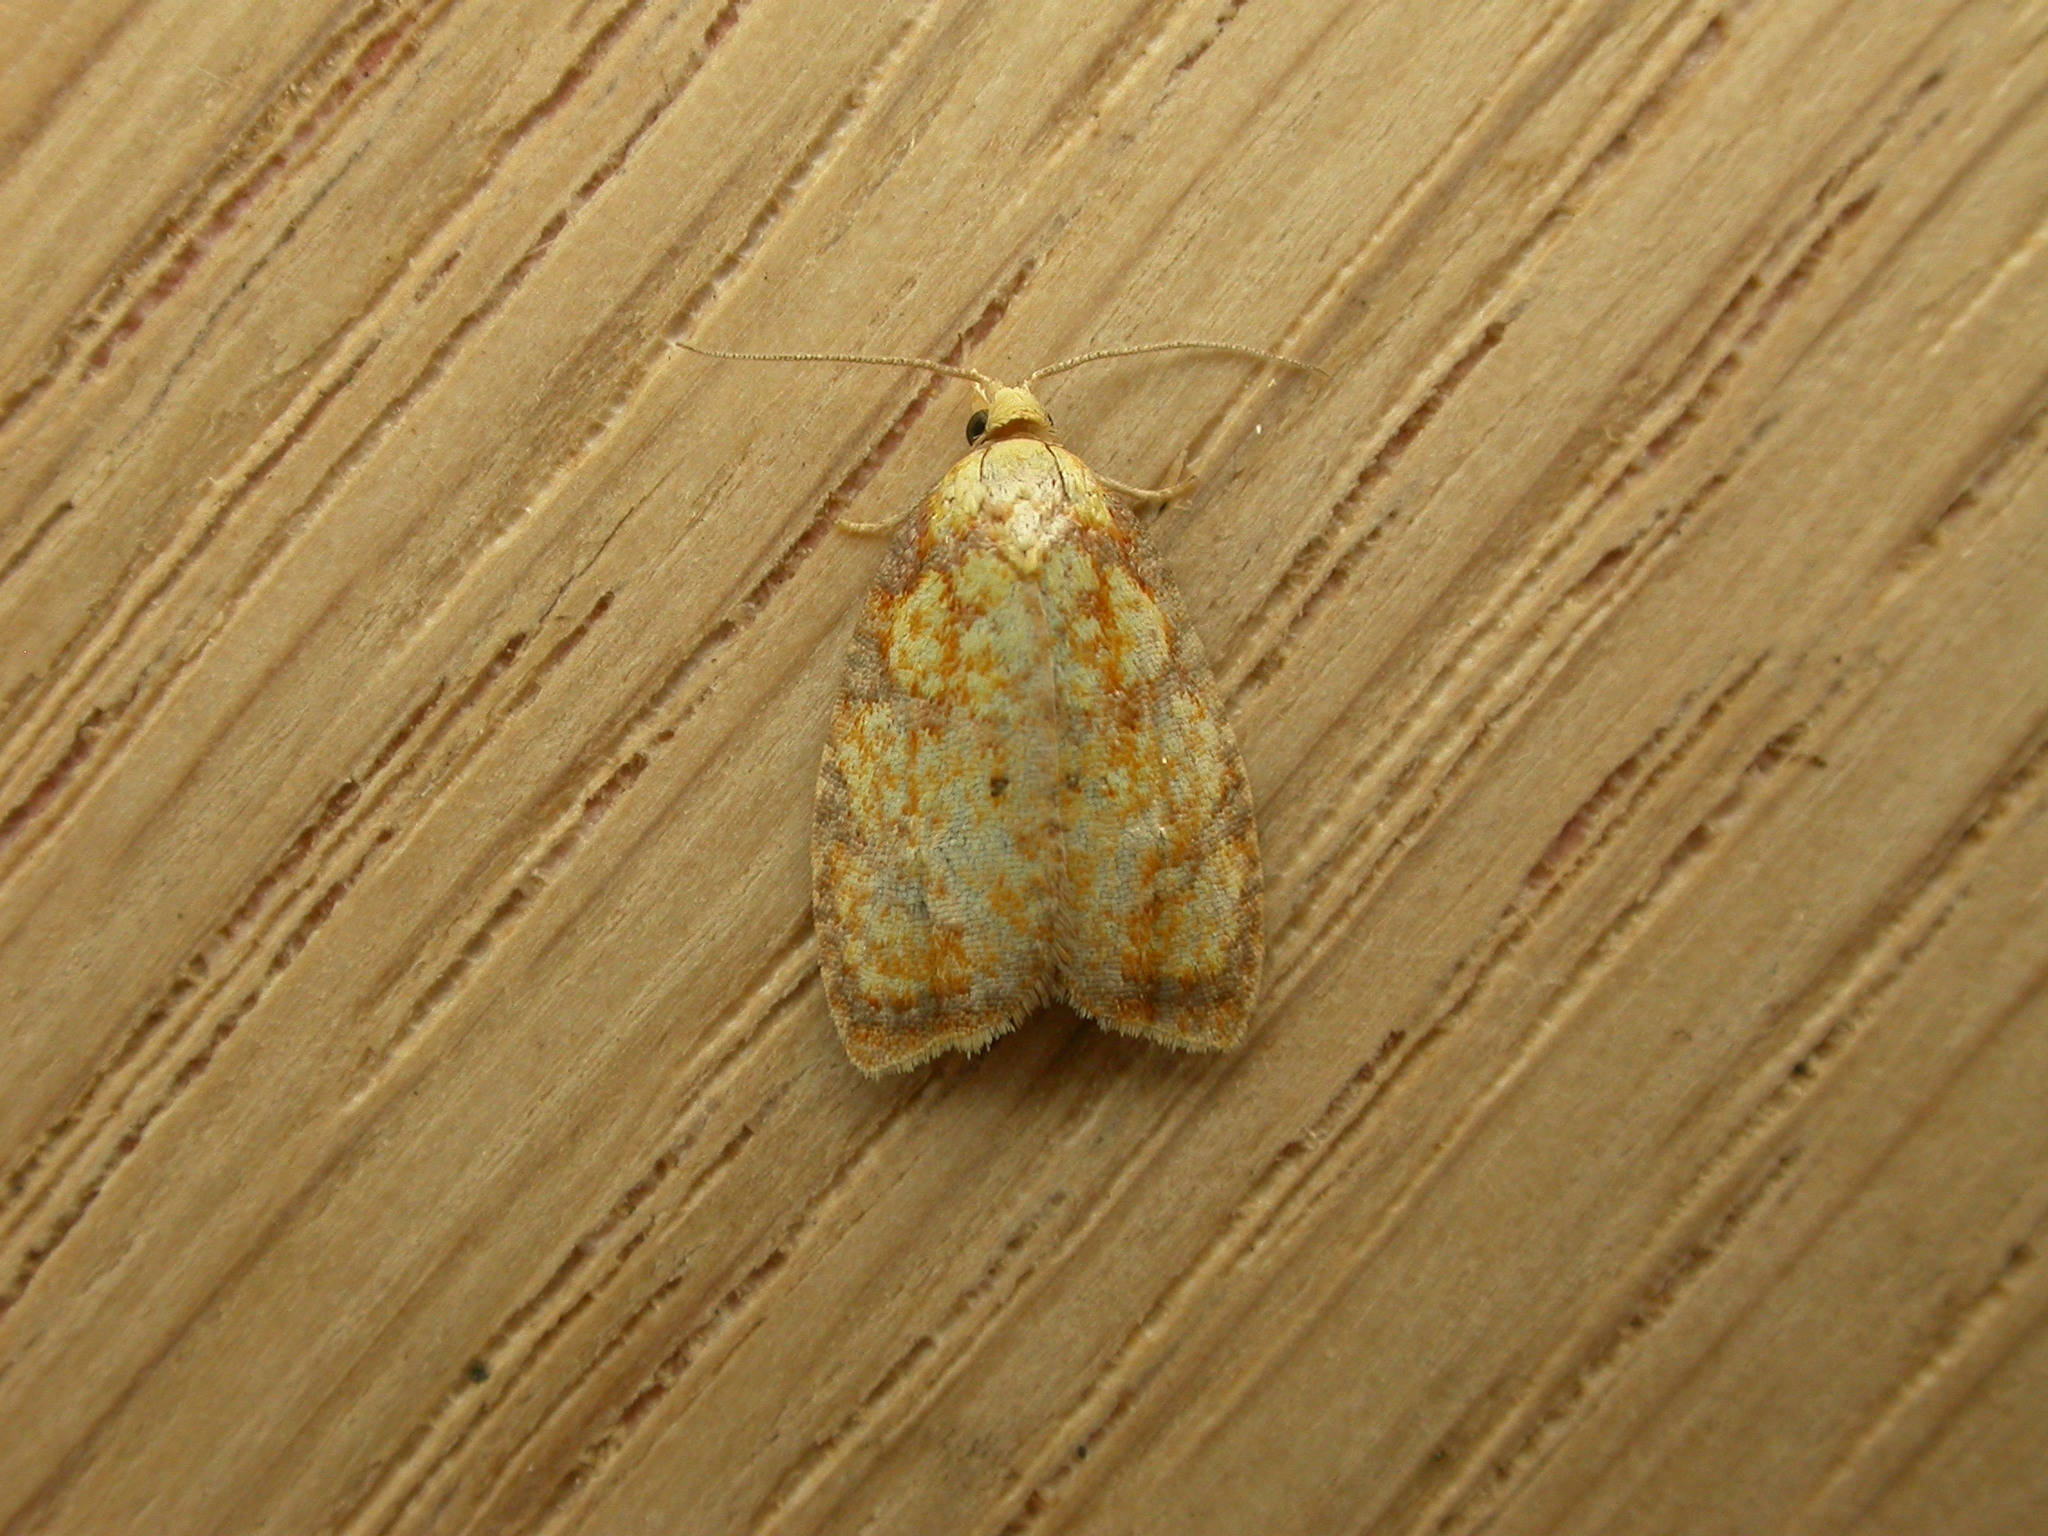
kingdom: Animalia
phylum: Arthropoda
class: Insecta
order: Lepidoptera
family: Tortricidae
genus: Acleris
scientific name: Acleris bergmanniana
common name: Yellow rose button
